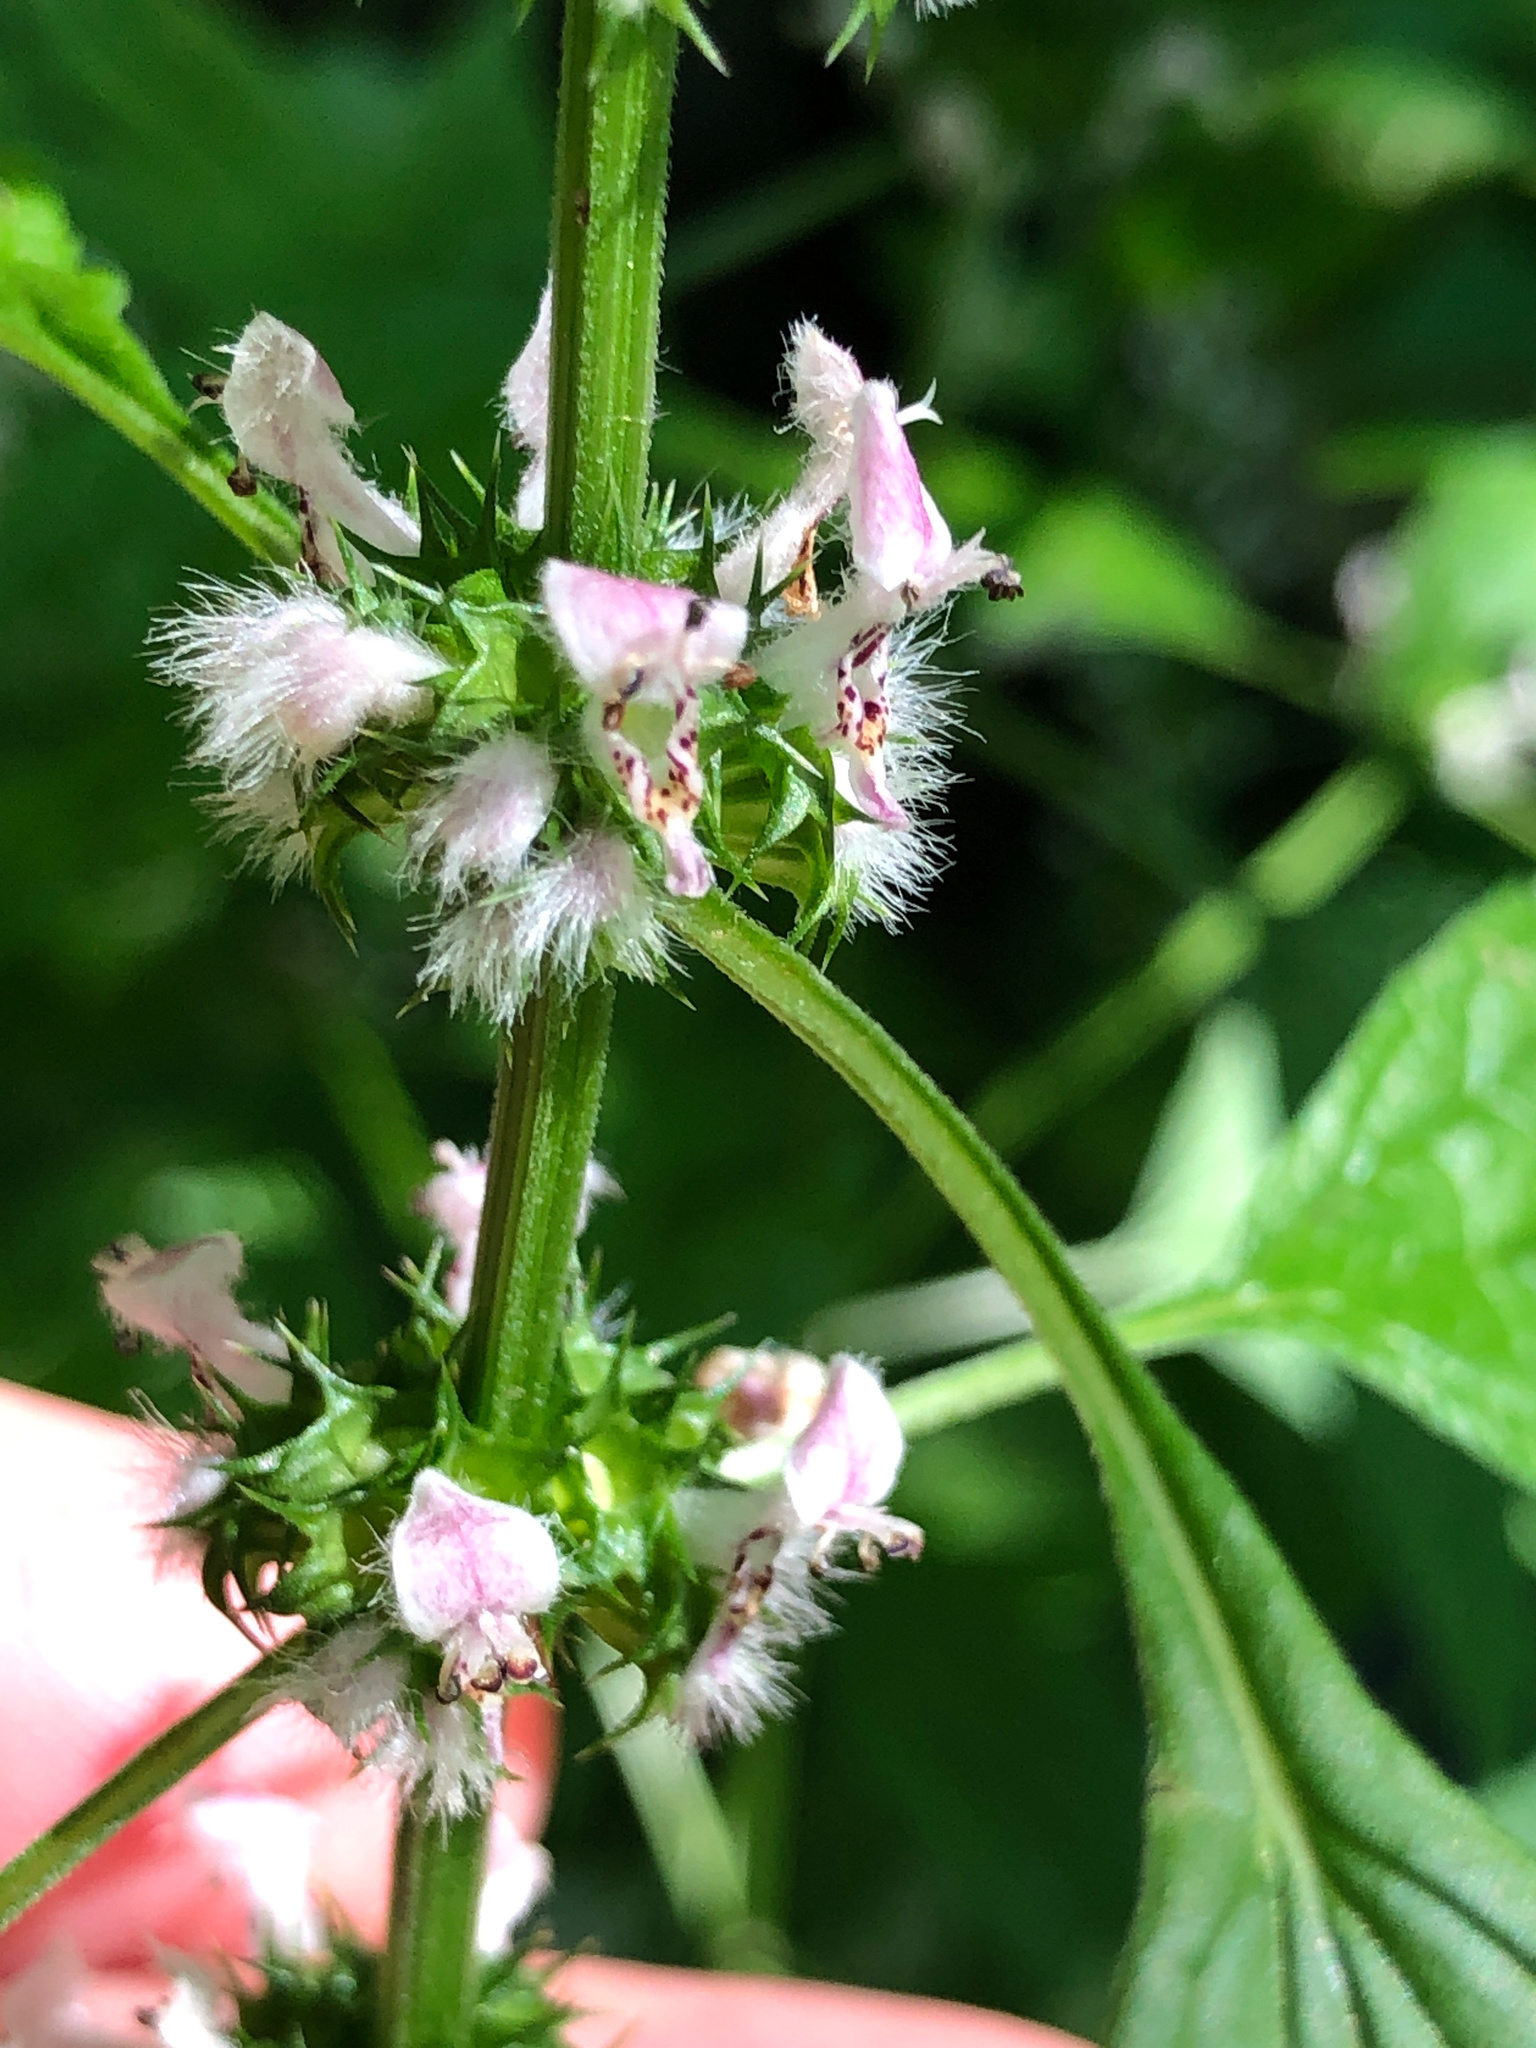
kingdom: Plantae
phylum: Tracheophyta
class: Magnoliopsida
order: Lamiales
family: Lamiaceae
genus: Leonurus
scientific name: Leonurus cardiaca
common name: Motherwort
